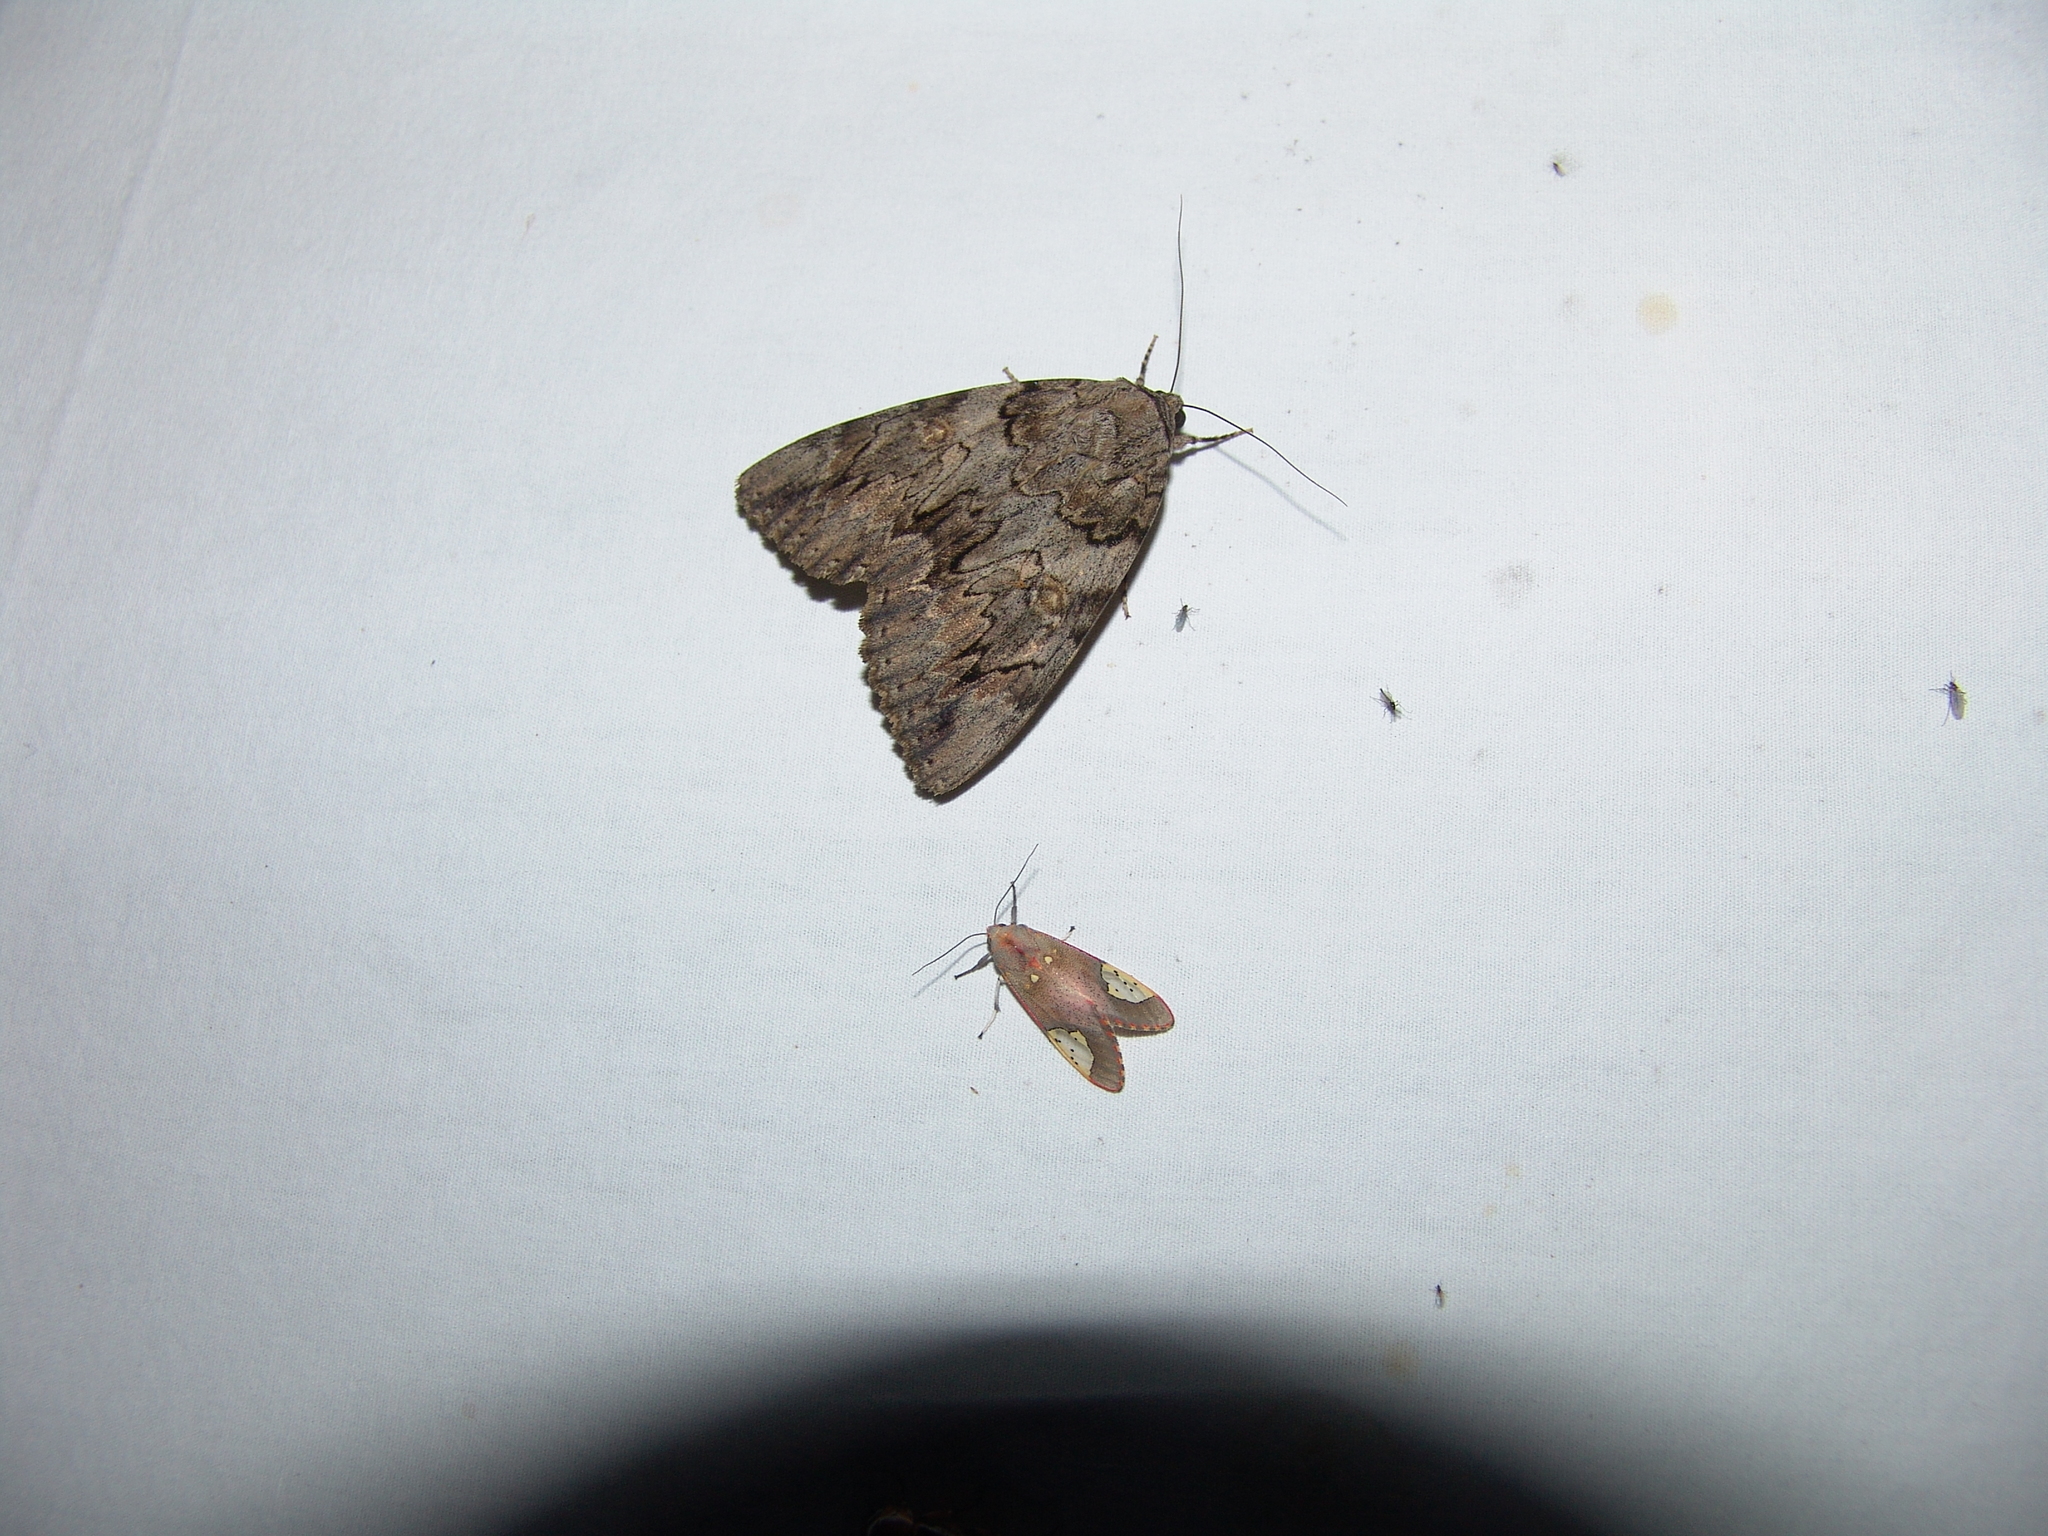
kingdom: Animalia
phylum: Arthropoda
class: Insecta
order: Lepidoptera
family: Erebidae
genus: Catocala
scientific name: Catocala neogama
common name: Bride underwing
